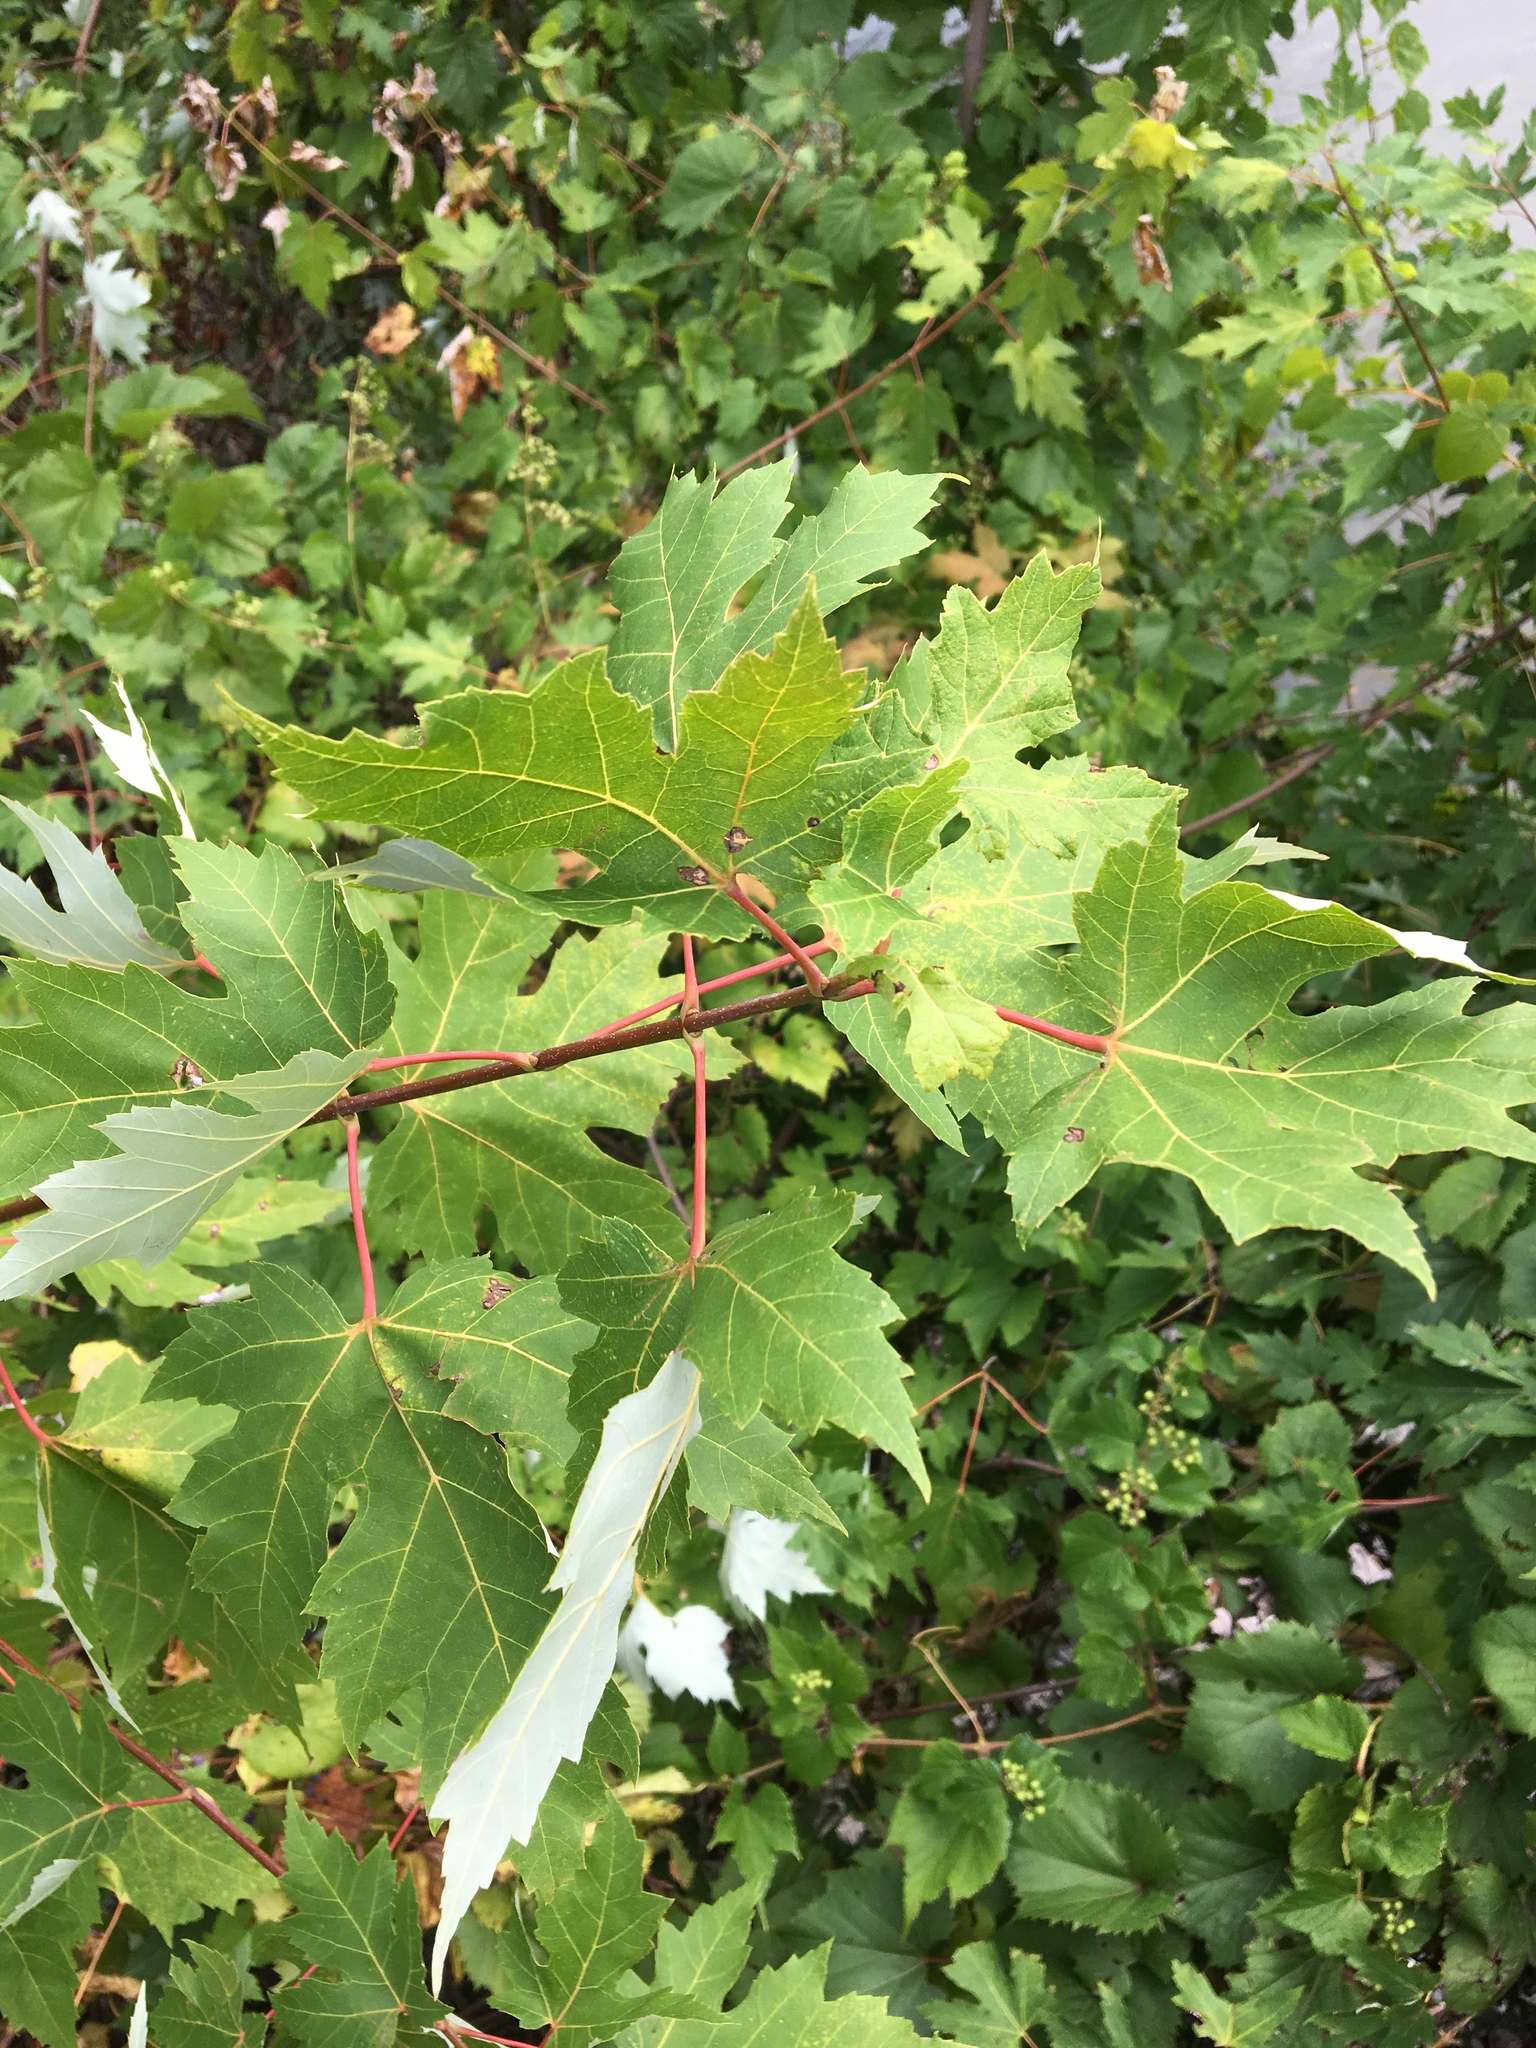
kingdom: Plantae
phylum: Tracheophyta
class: Magnoliopsida
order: Sapindales
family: Sapindaceae
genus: Acer
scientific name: Acer saccharinum
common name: Silver maple
